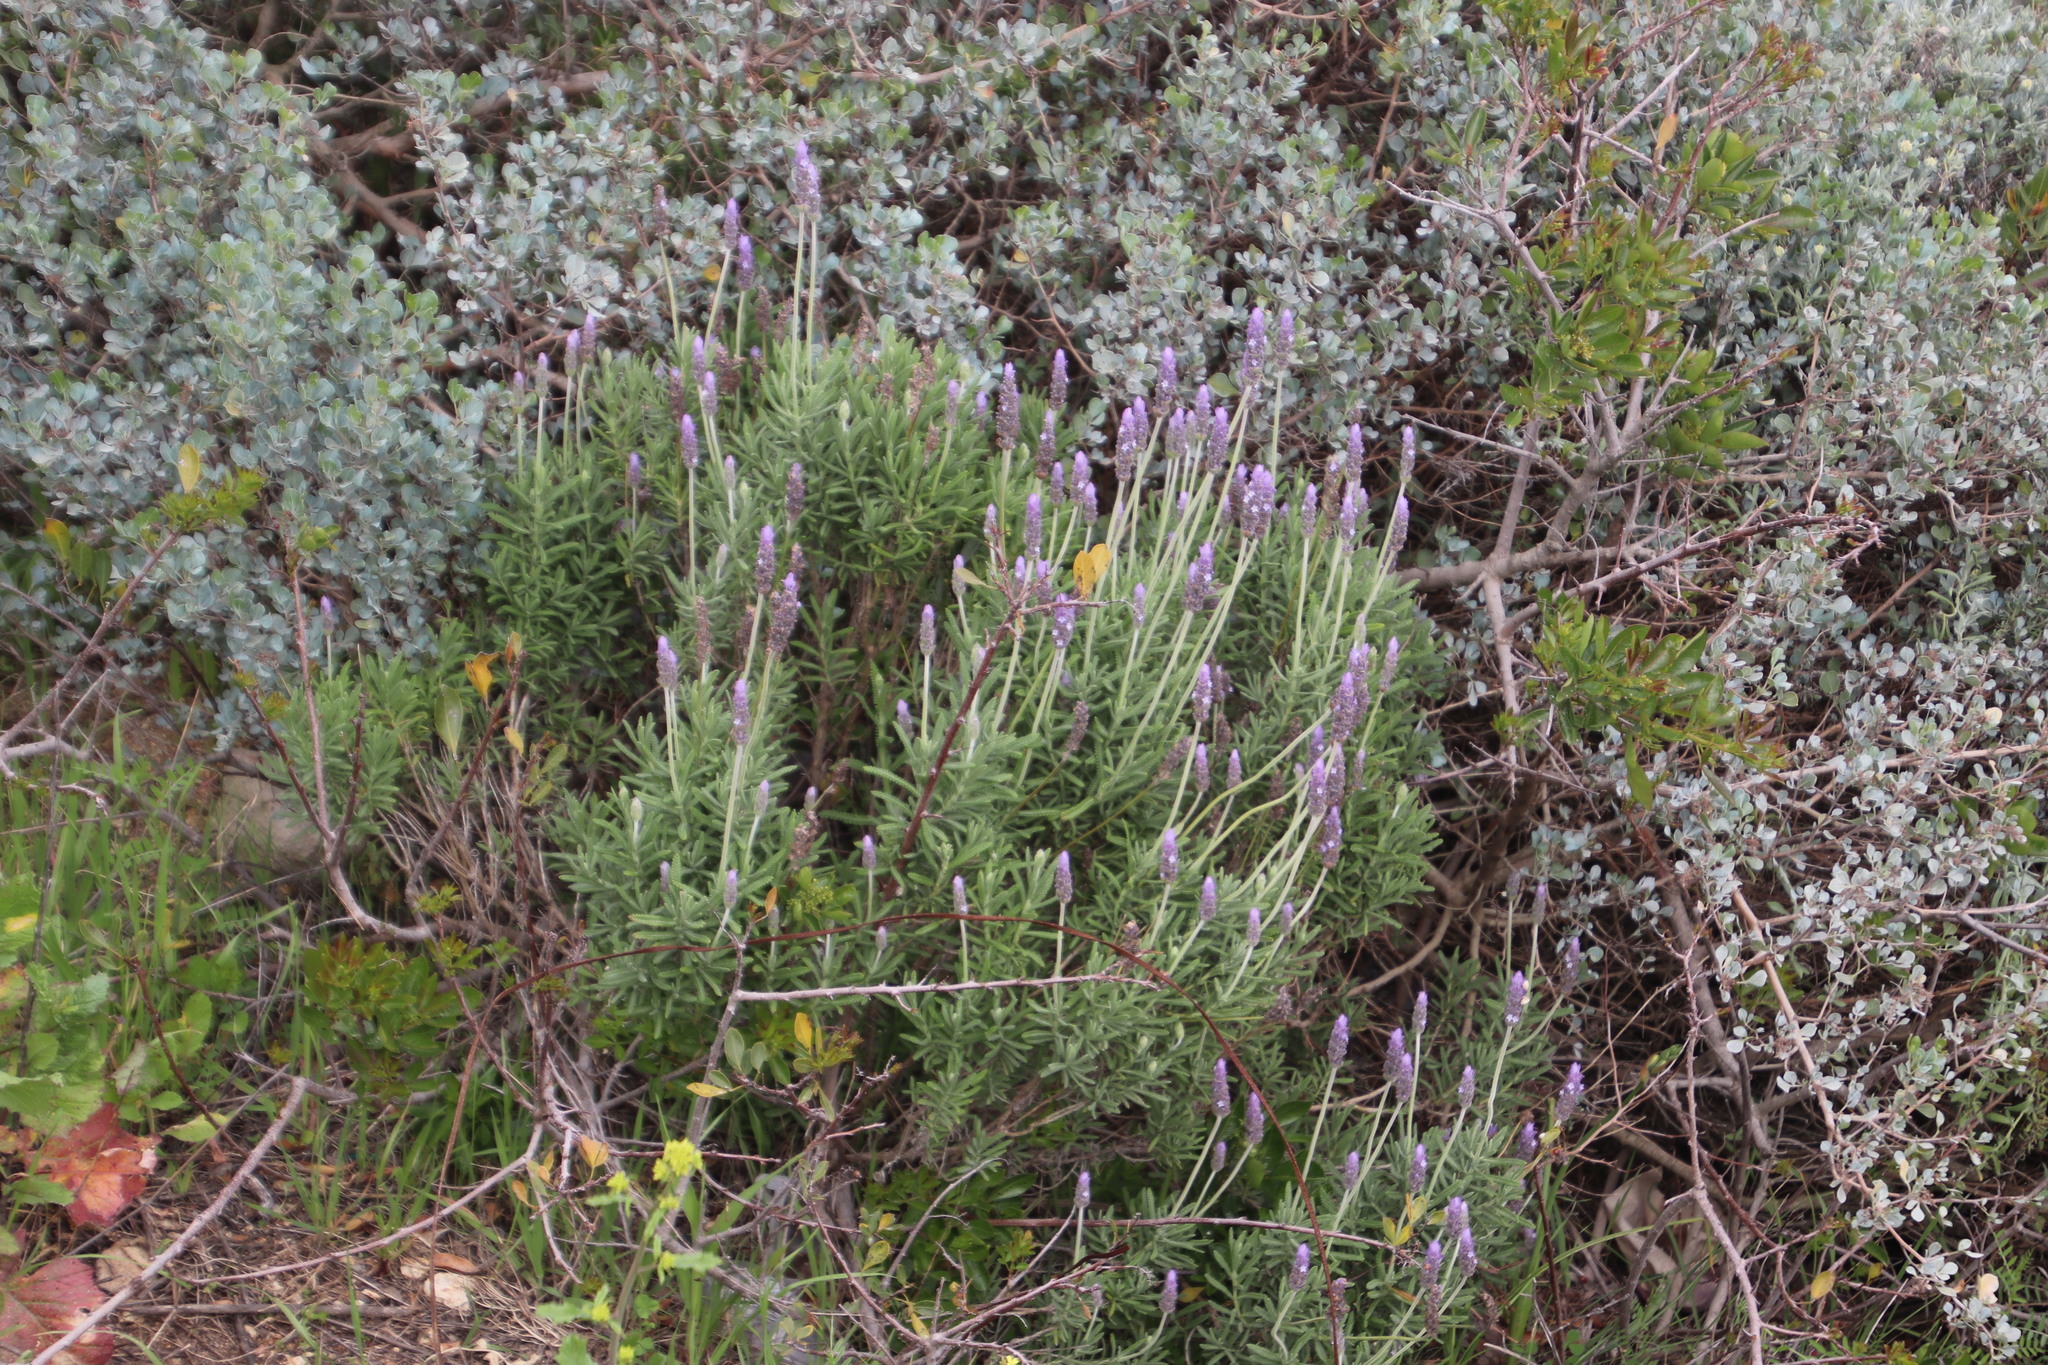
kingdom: Plantae
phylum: Tracheophyta
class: Magnoliopsida
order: Lamiales
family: Lamiaceae
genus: Lavandula
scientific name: Lavandula dentata
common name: French lavender
